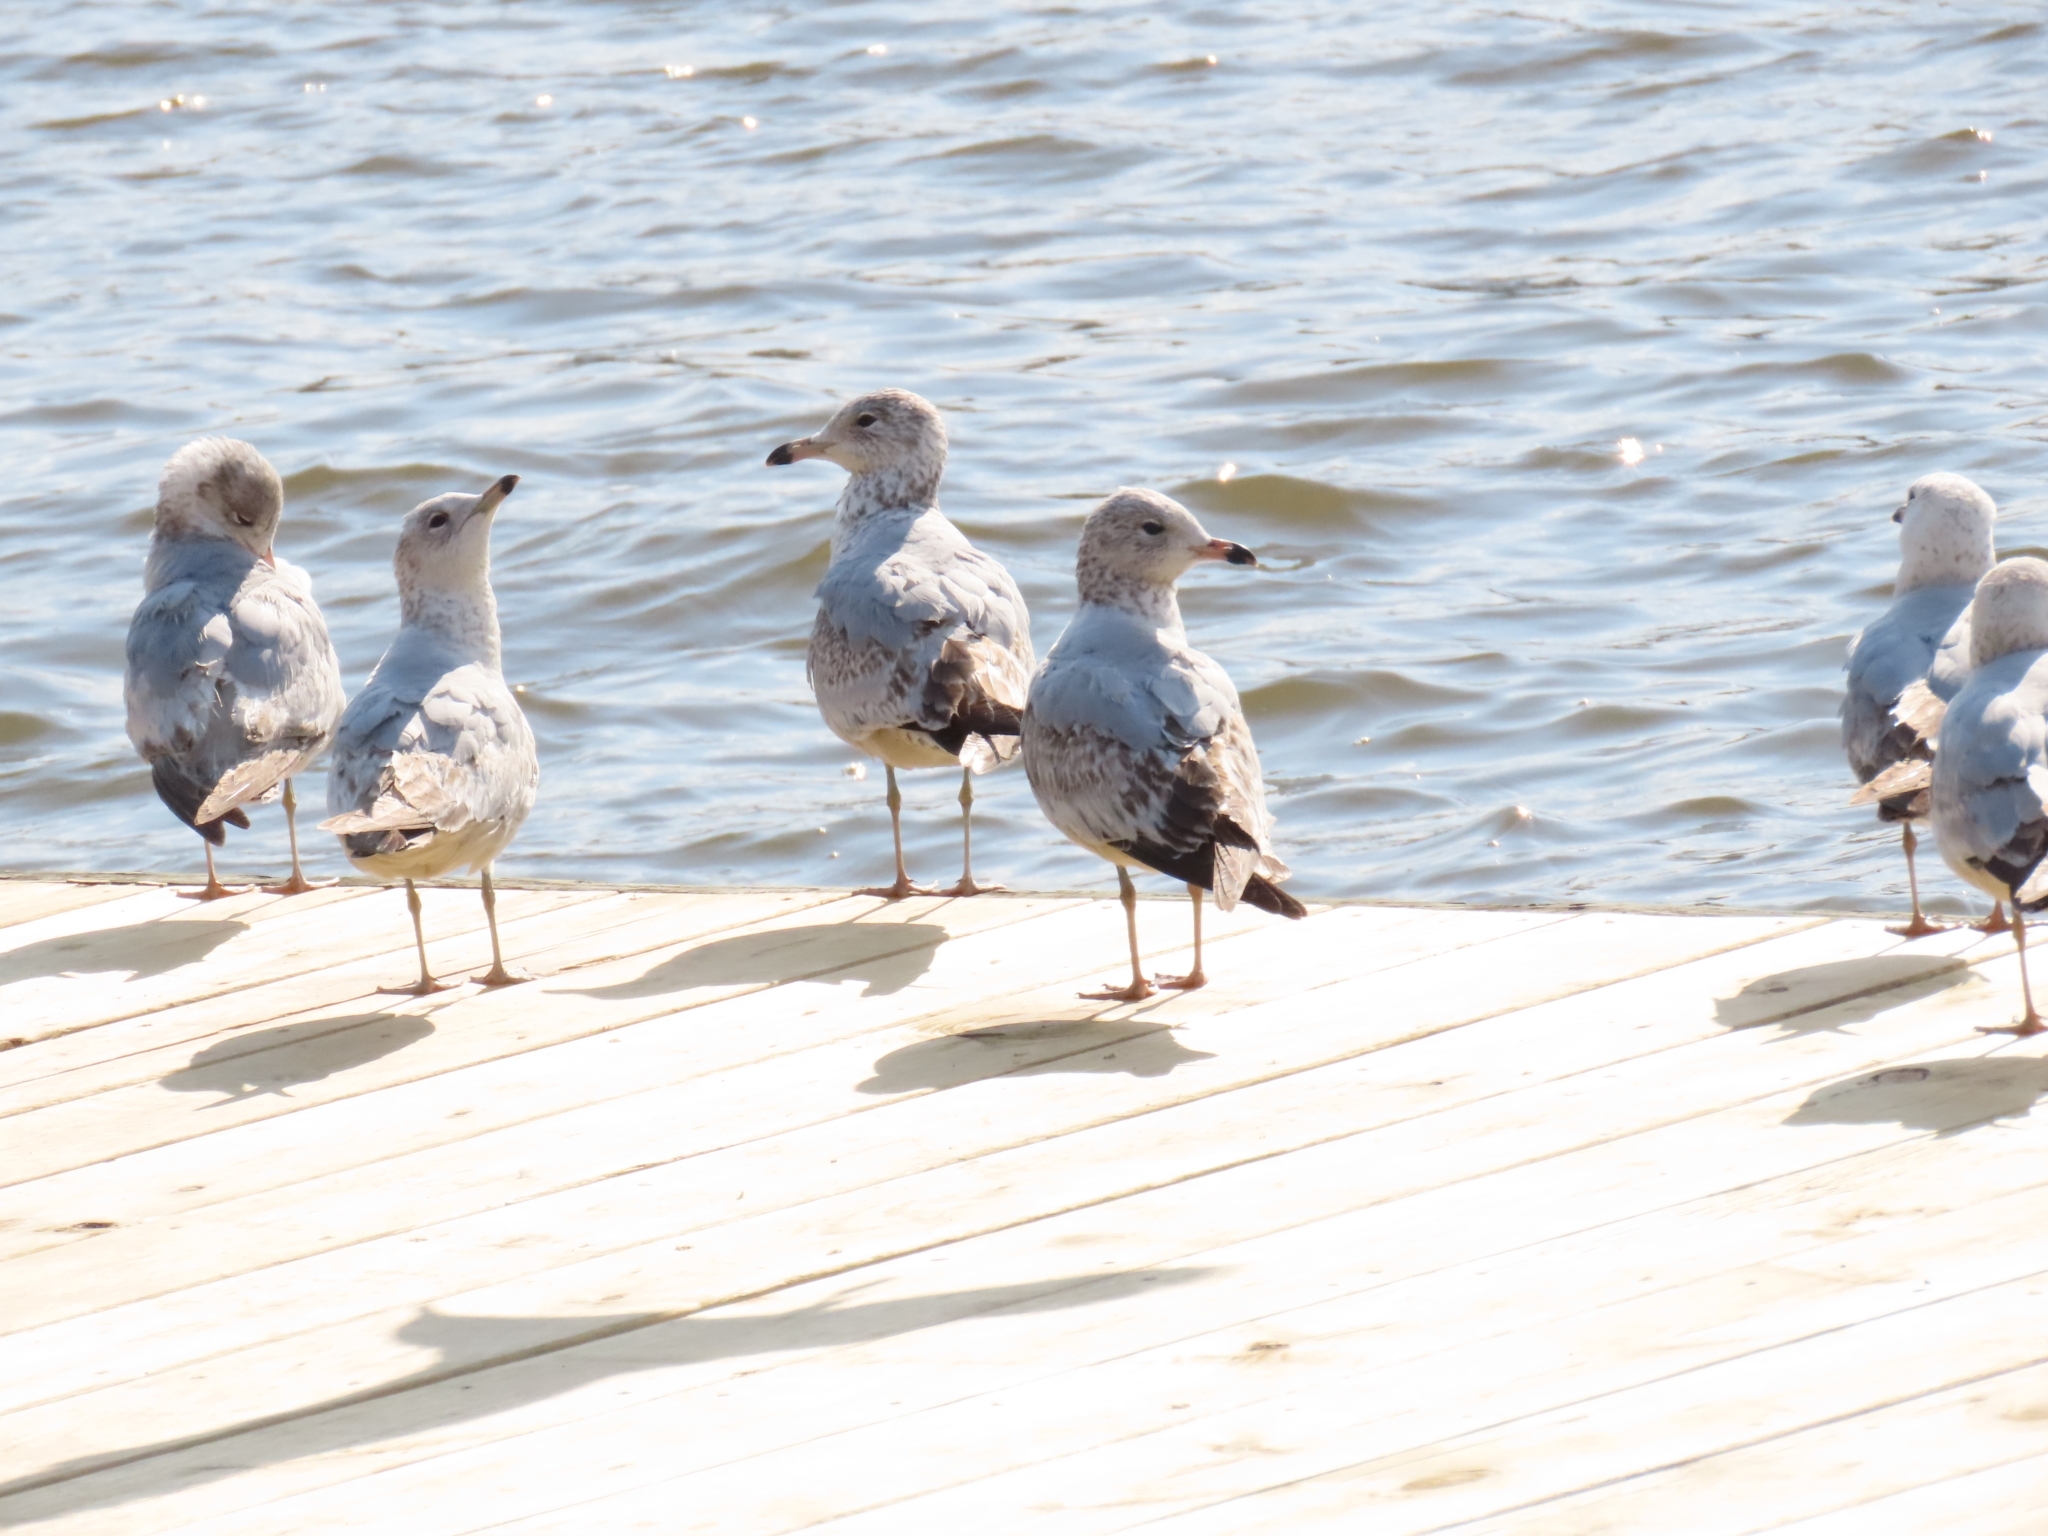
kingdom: Animalia
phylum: Chordata
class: Aves
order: Charadriiformes
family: Laridae
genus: Larus
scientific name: Larus delawarensis
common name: Ring-billed gull
